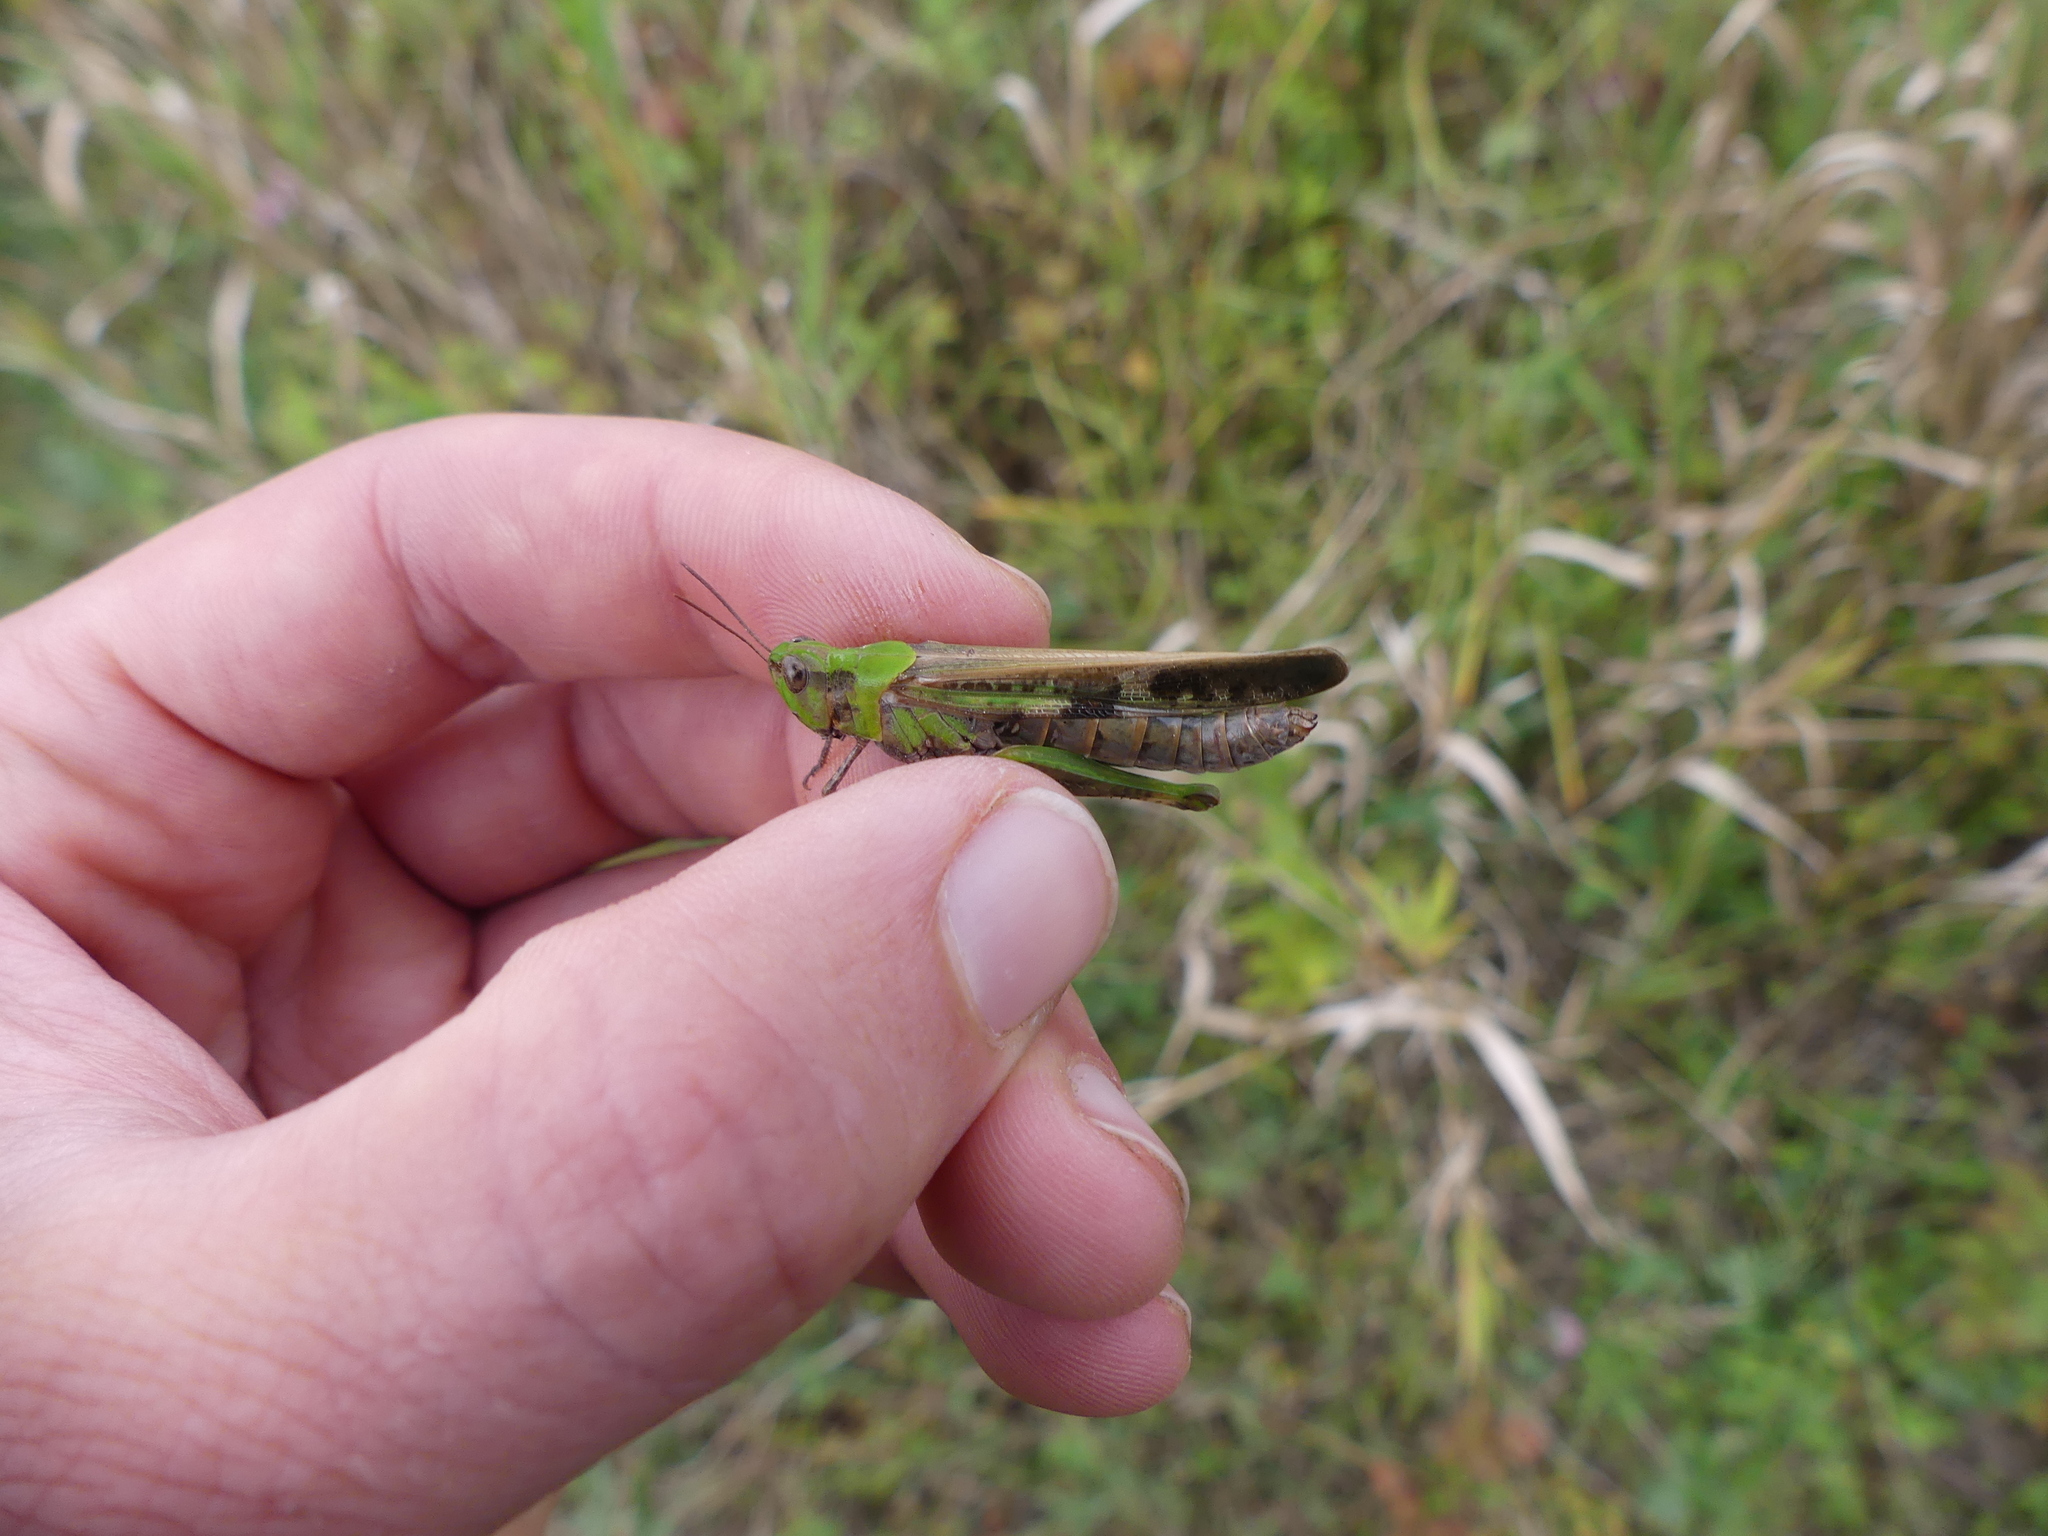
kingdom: Animalia
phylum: Arthropoda
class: Insecta
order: Orthoptera
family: Acrididae
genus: Aiolopus
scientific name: Aiolopus thalassinus
